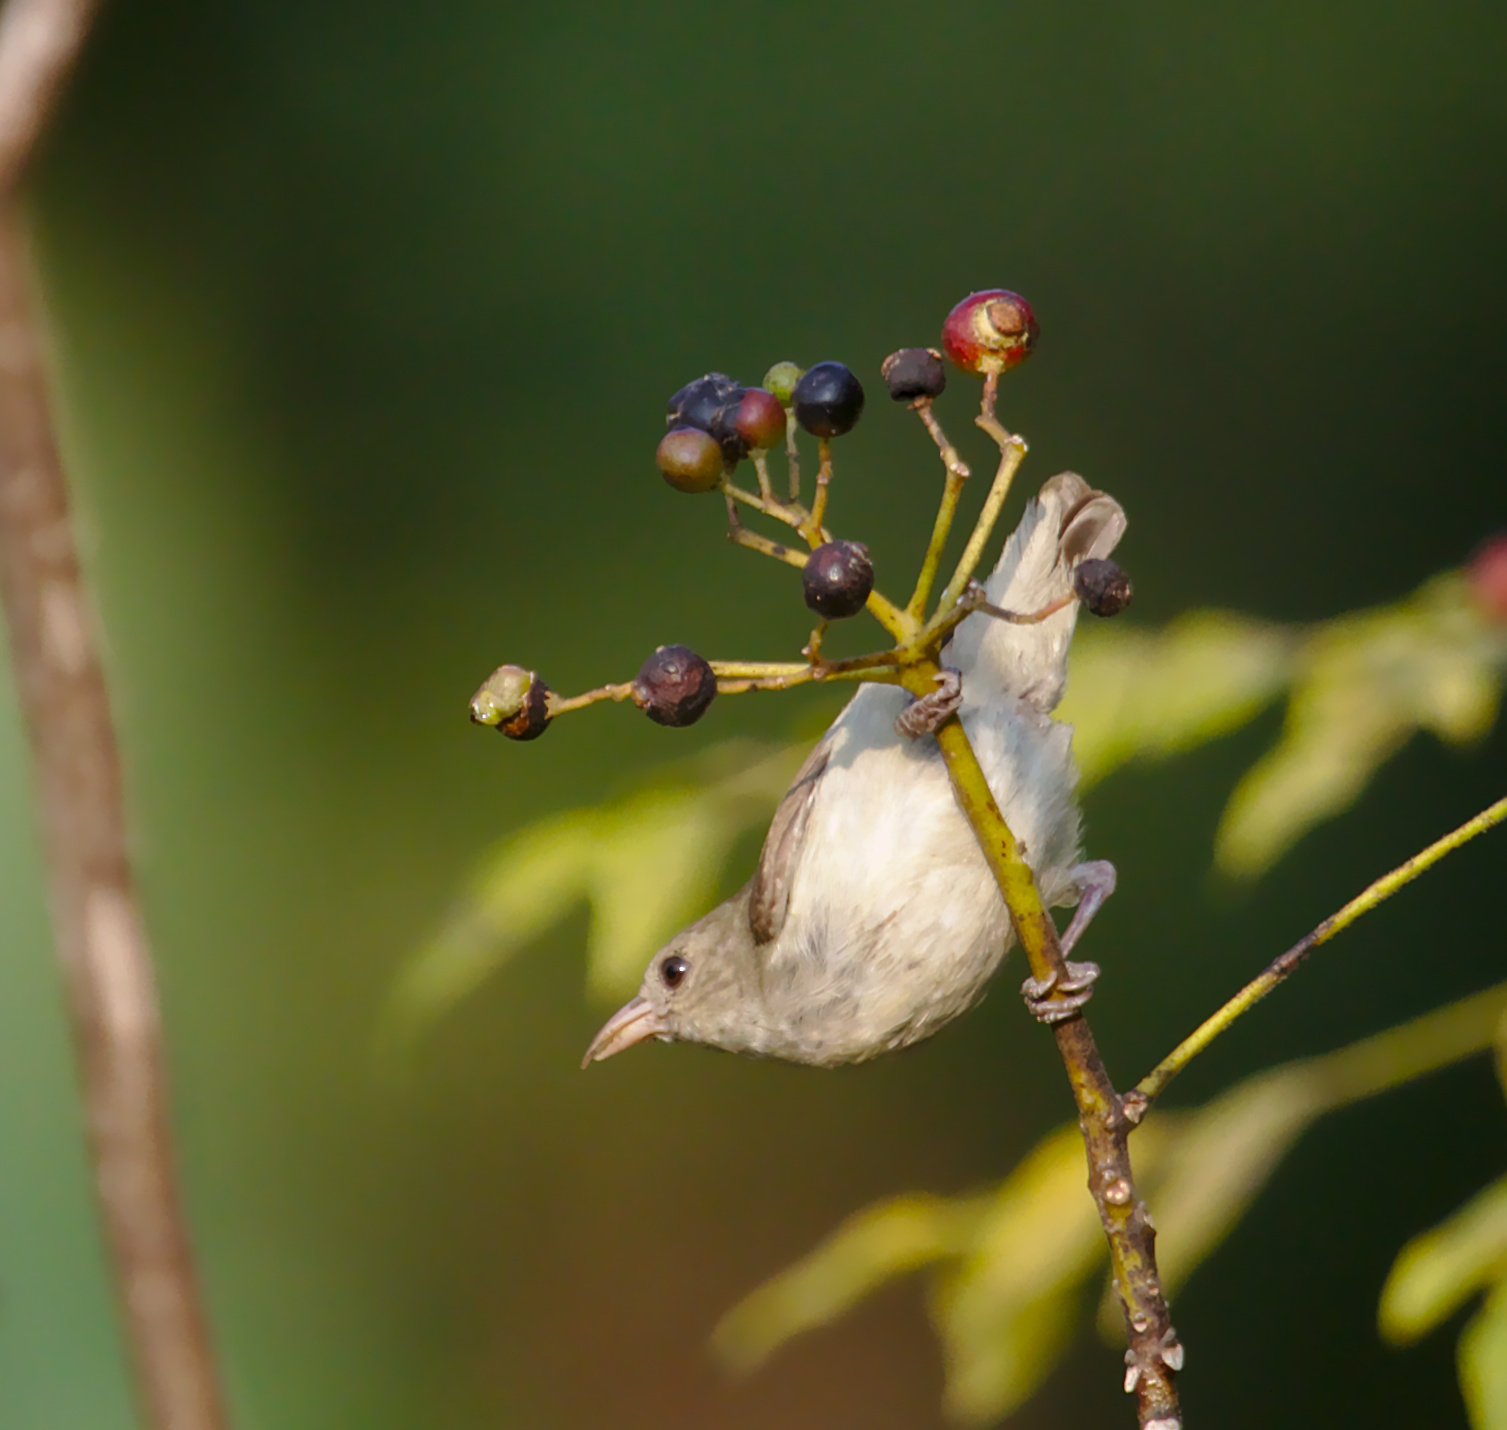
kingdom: Animalia
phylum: Chordata
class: Aves
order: Passeriformes
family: Dicaeidae
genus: Dicaeum
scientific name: Dicaeum erythrorhynchos
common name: Pale-billed flowerpecker
